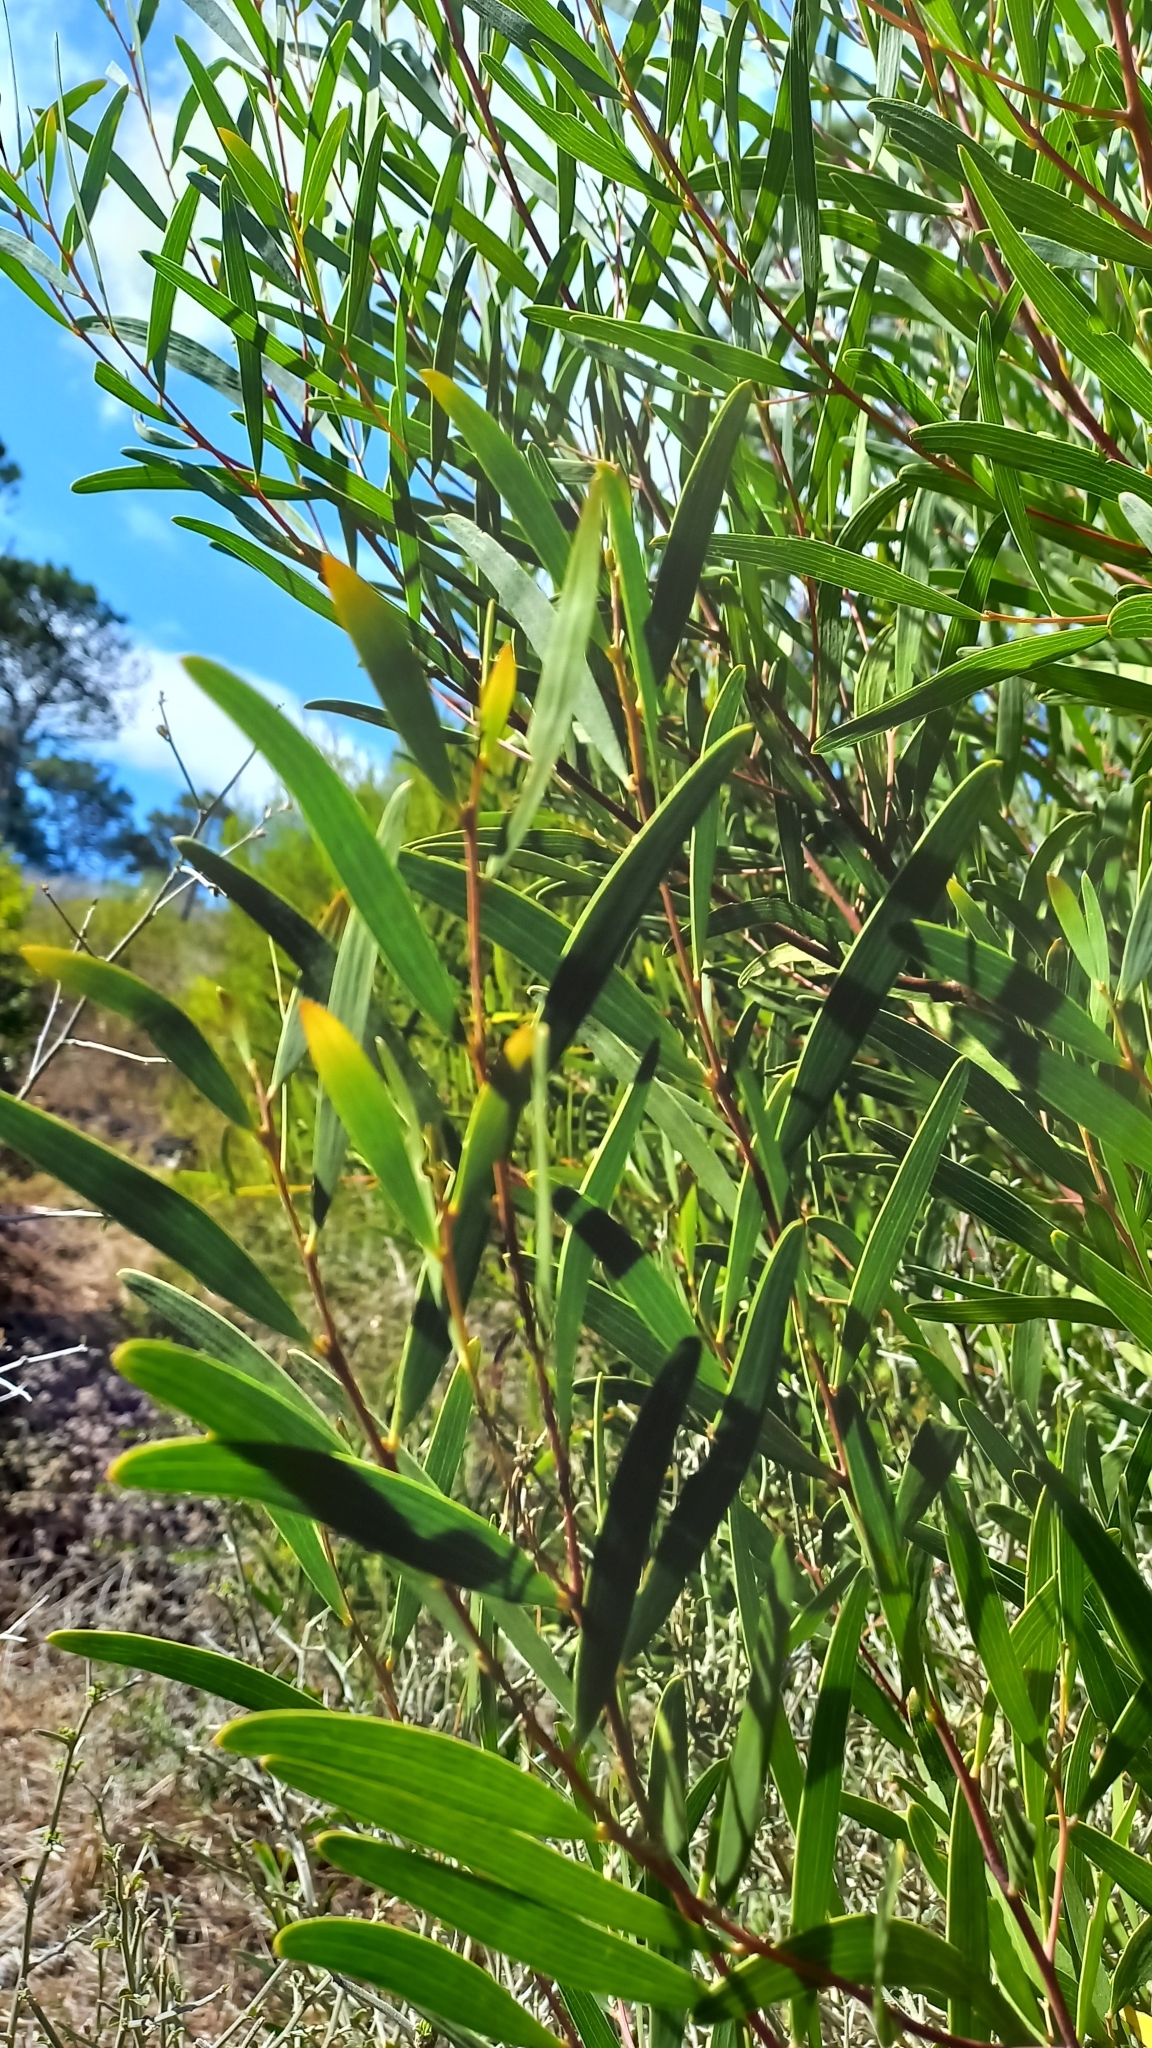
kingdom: Plantae
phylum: Tracheophyta
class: Magnoliopsida
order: Fabales
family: Fabaceae
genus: Acacia
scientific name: Acacia cyclops
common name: Coastal wattle
